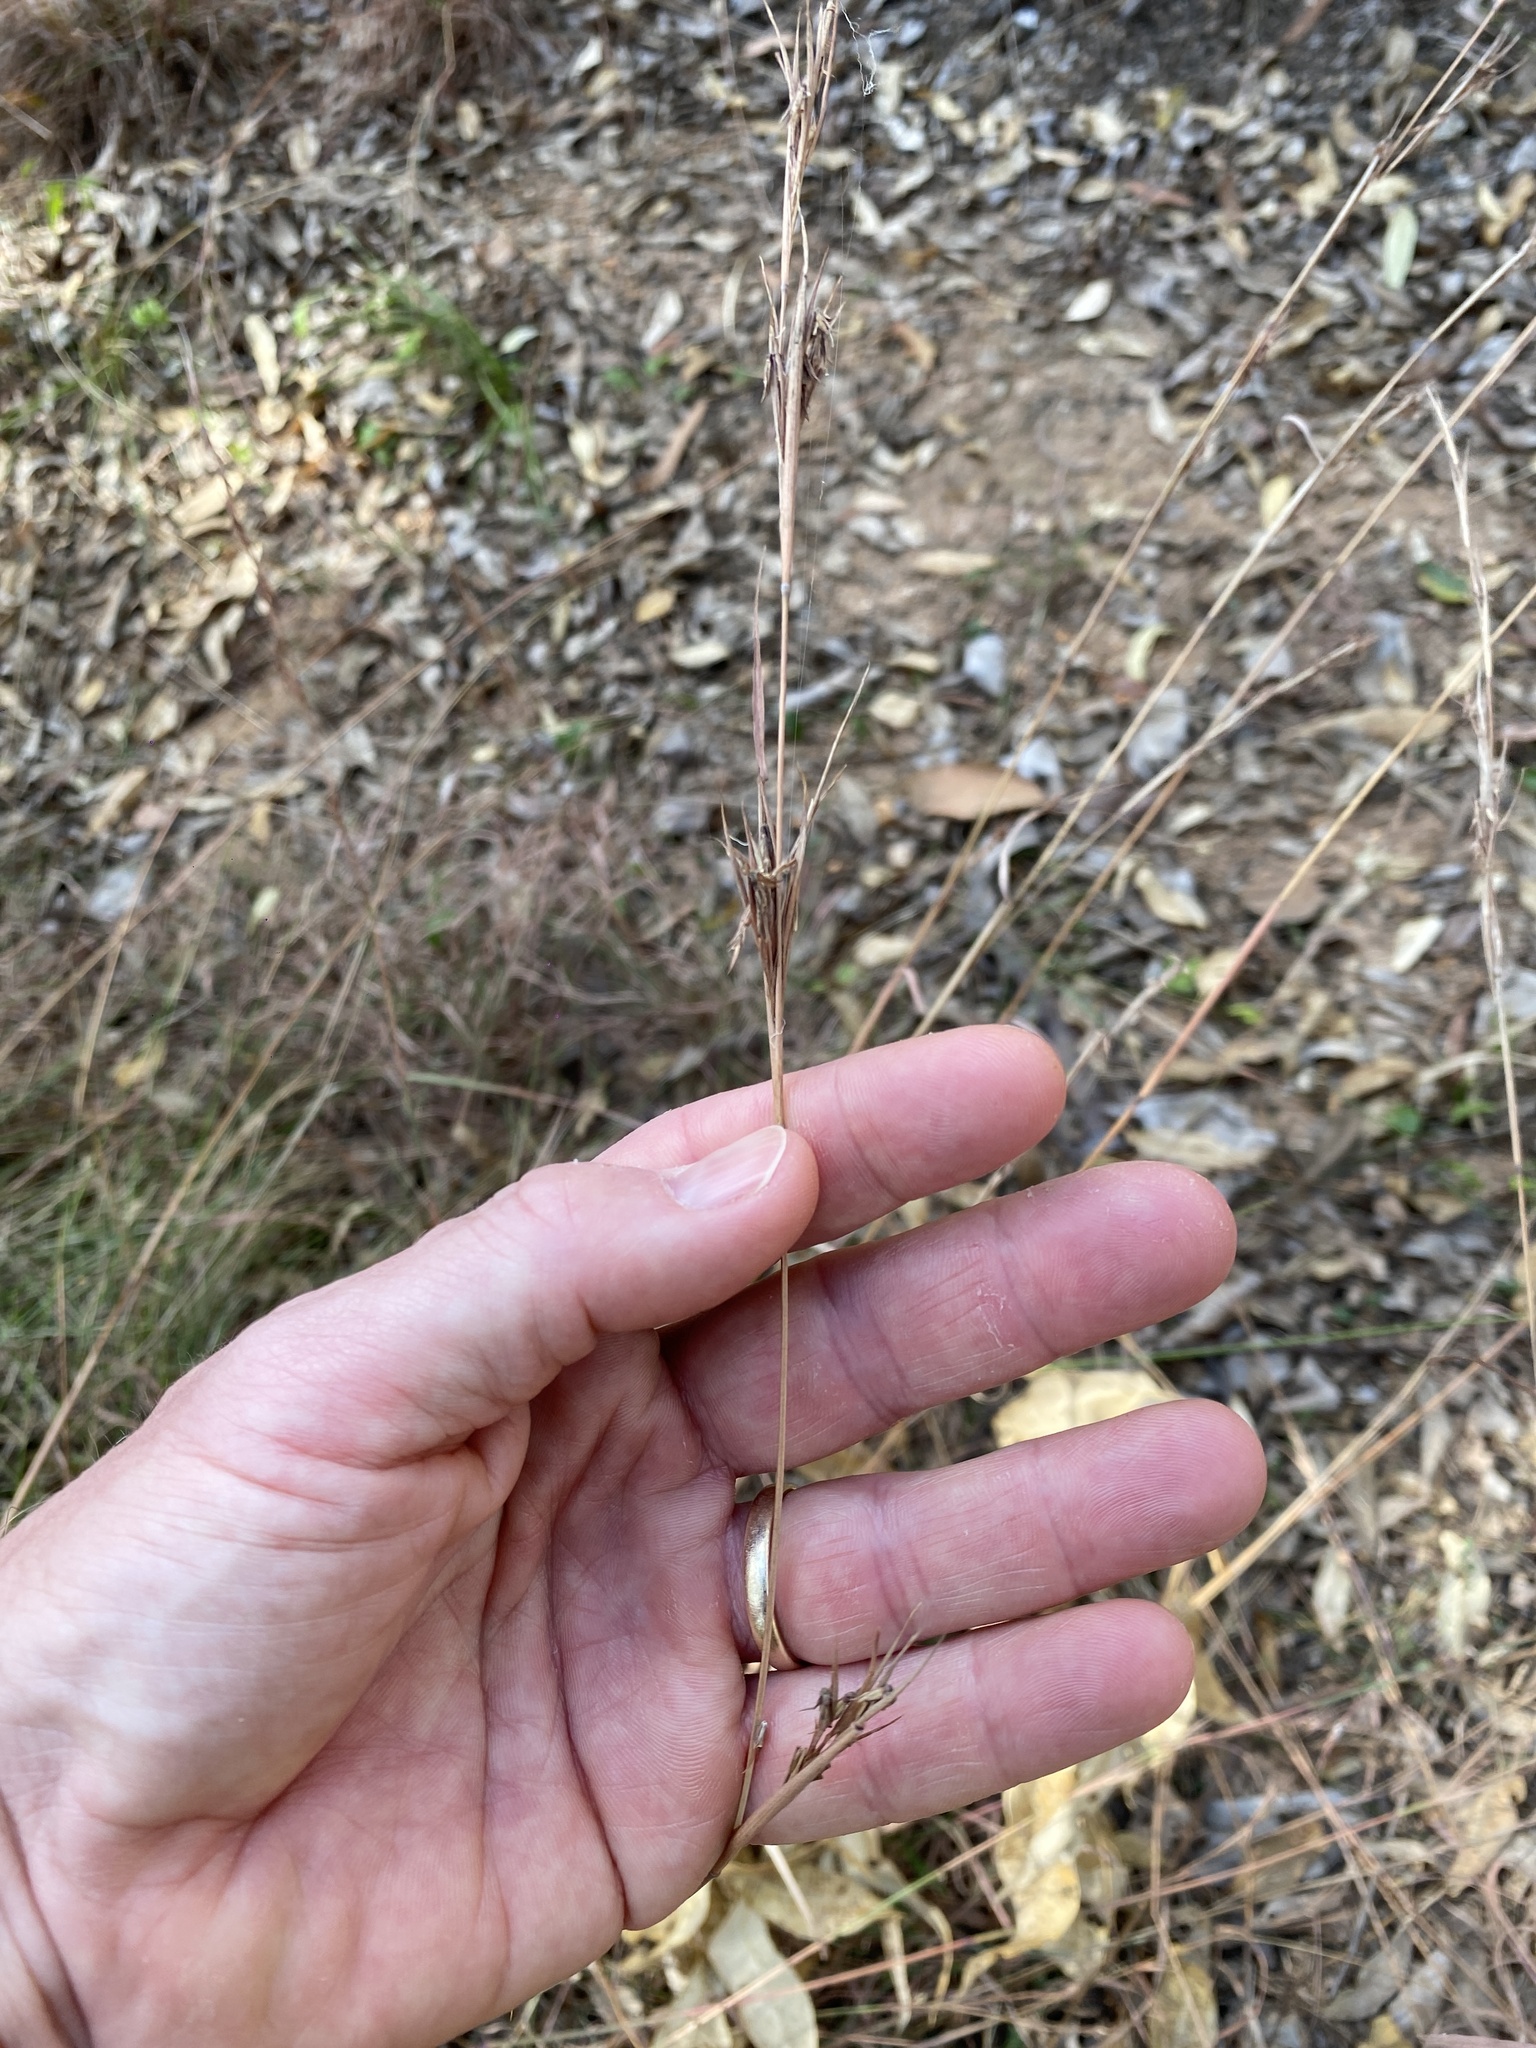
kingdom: Plantae
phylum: Tracheophyta
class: Liliopsida
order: Poales
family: Poaceae
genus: Cymbopogon
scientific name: Cymbopogon refractus
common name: Barbwire grass
